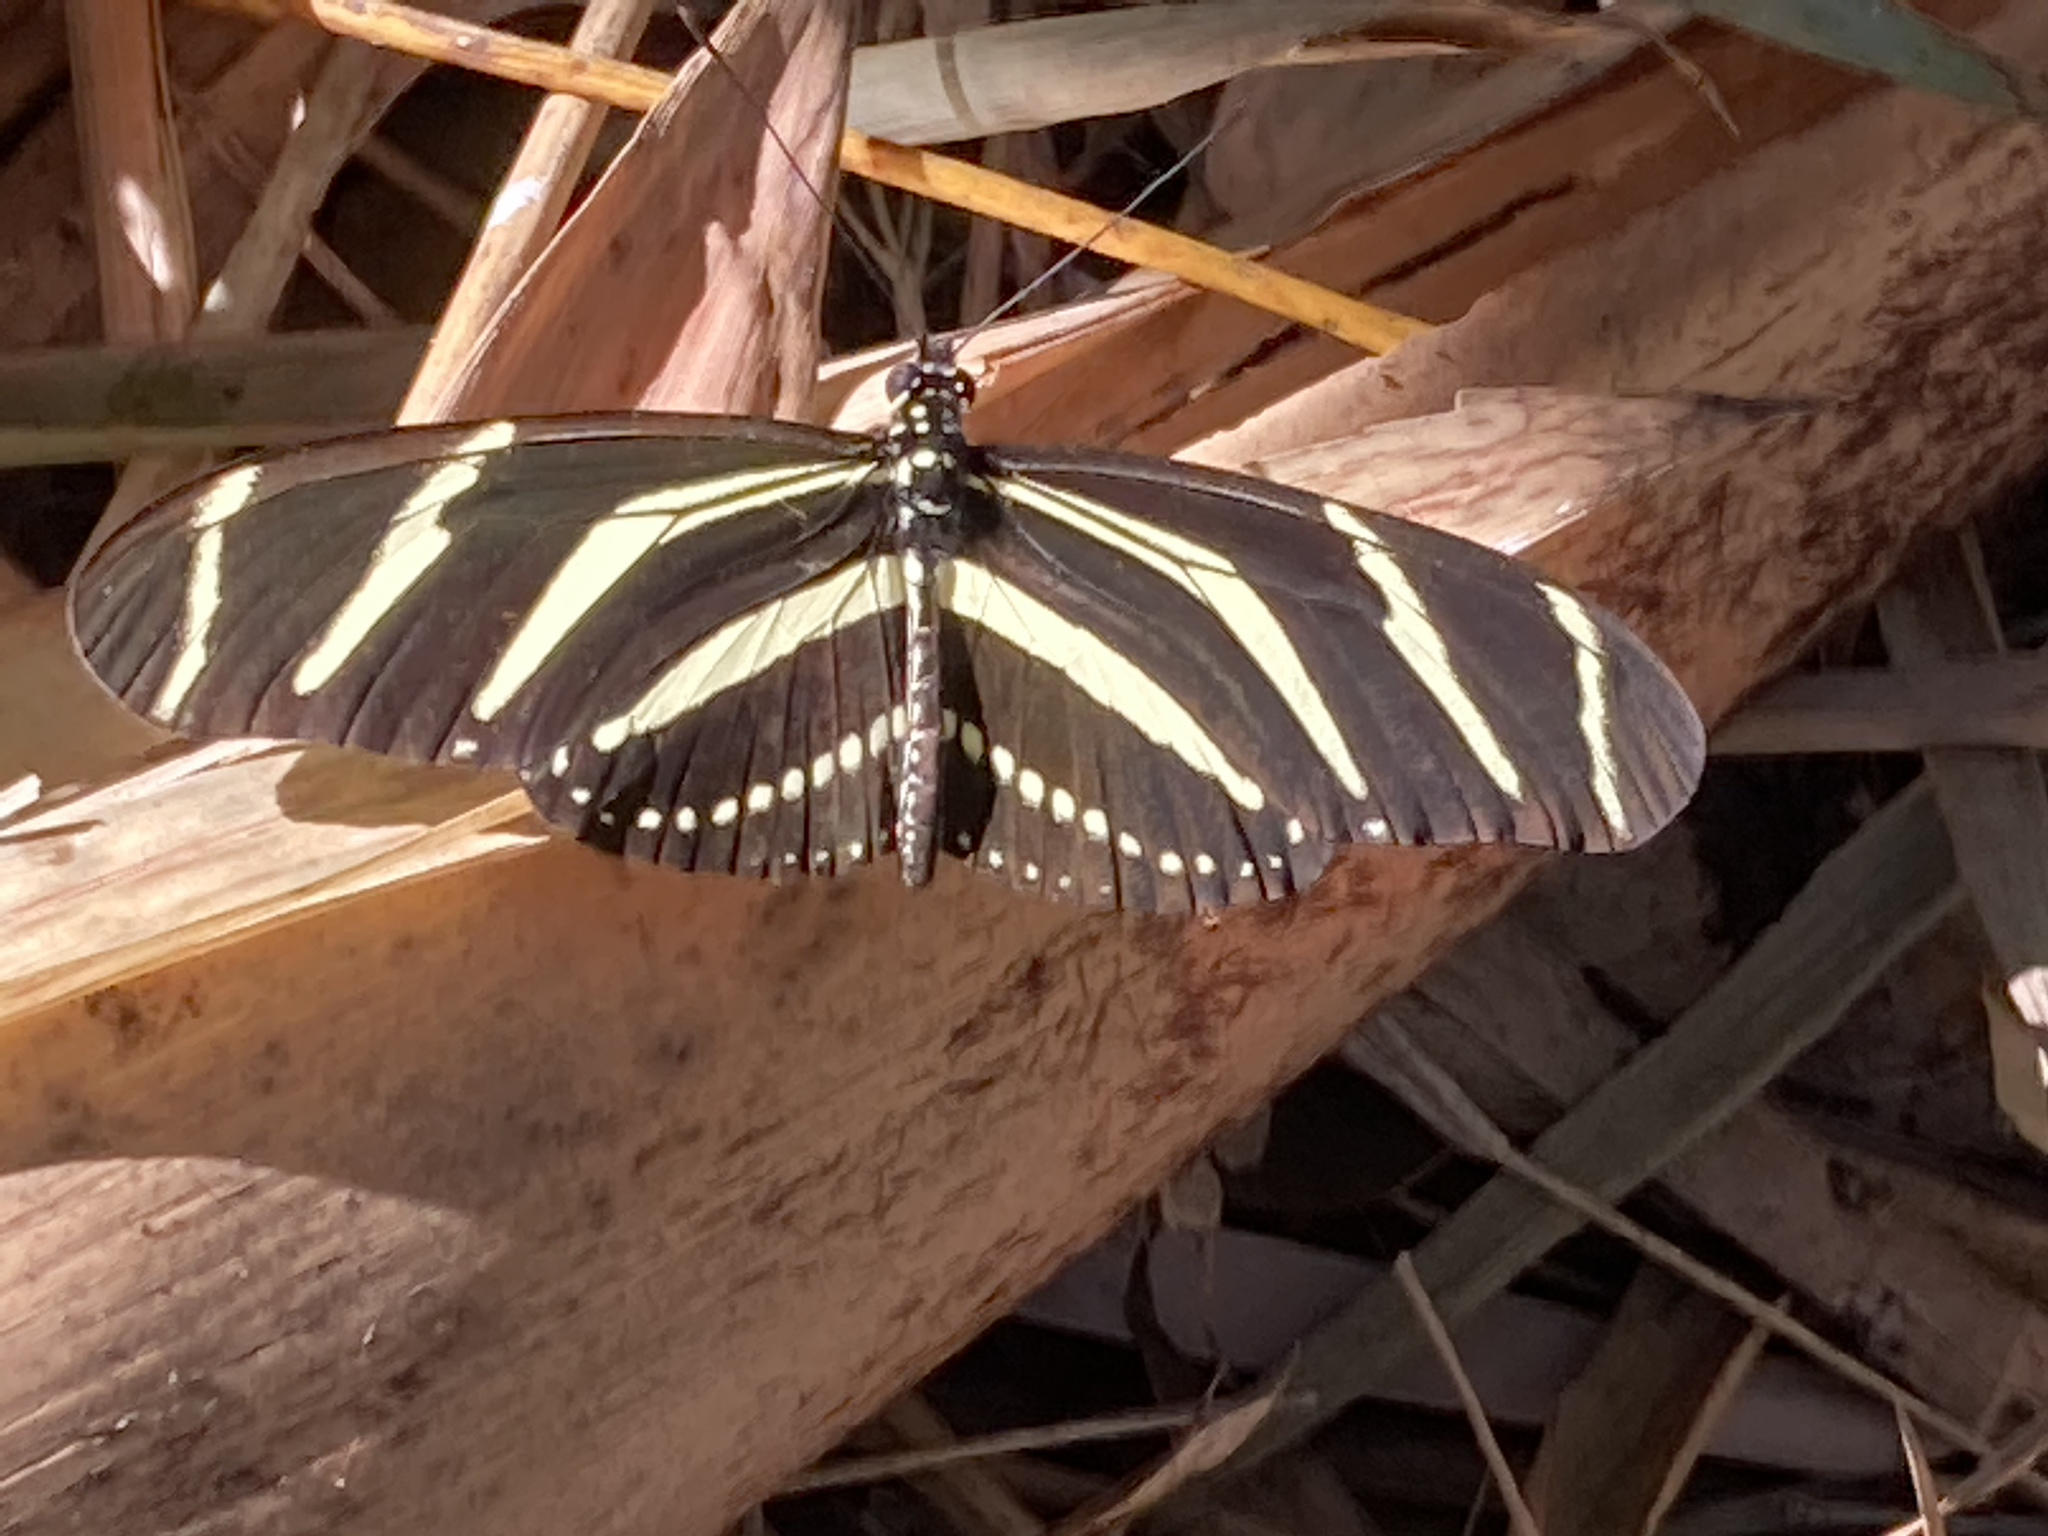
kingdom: Animalia
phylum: Arthropoda
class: Insecta
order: Lepidoptera
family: Nymphalidae
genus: Heliconius
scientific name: Heliconius charithonia
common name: Zebra long wing
